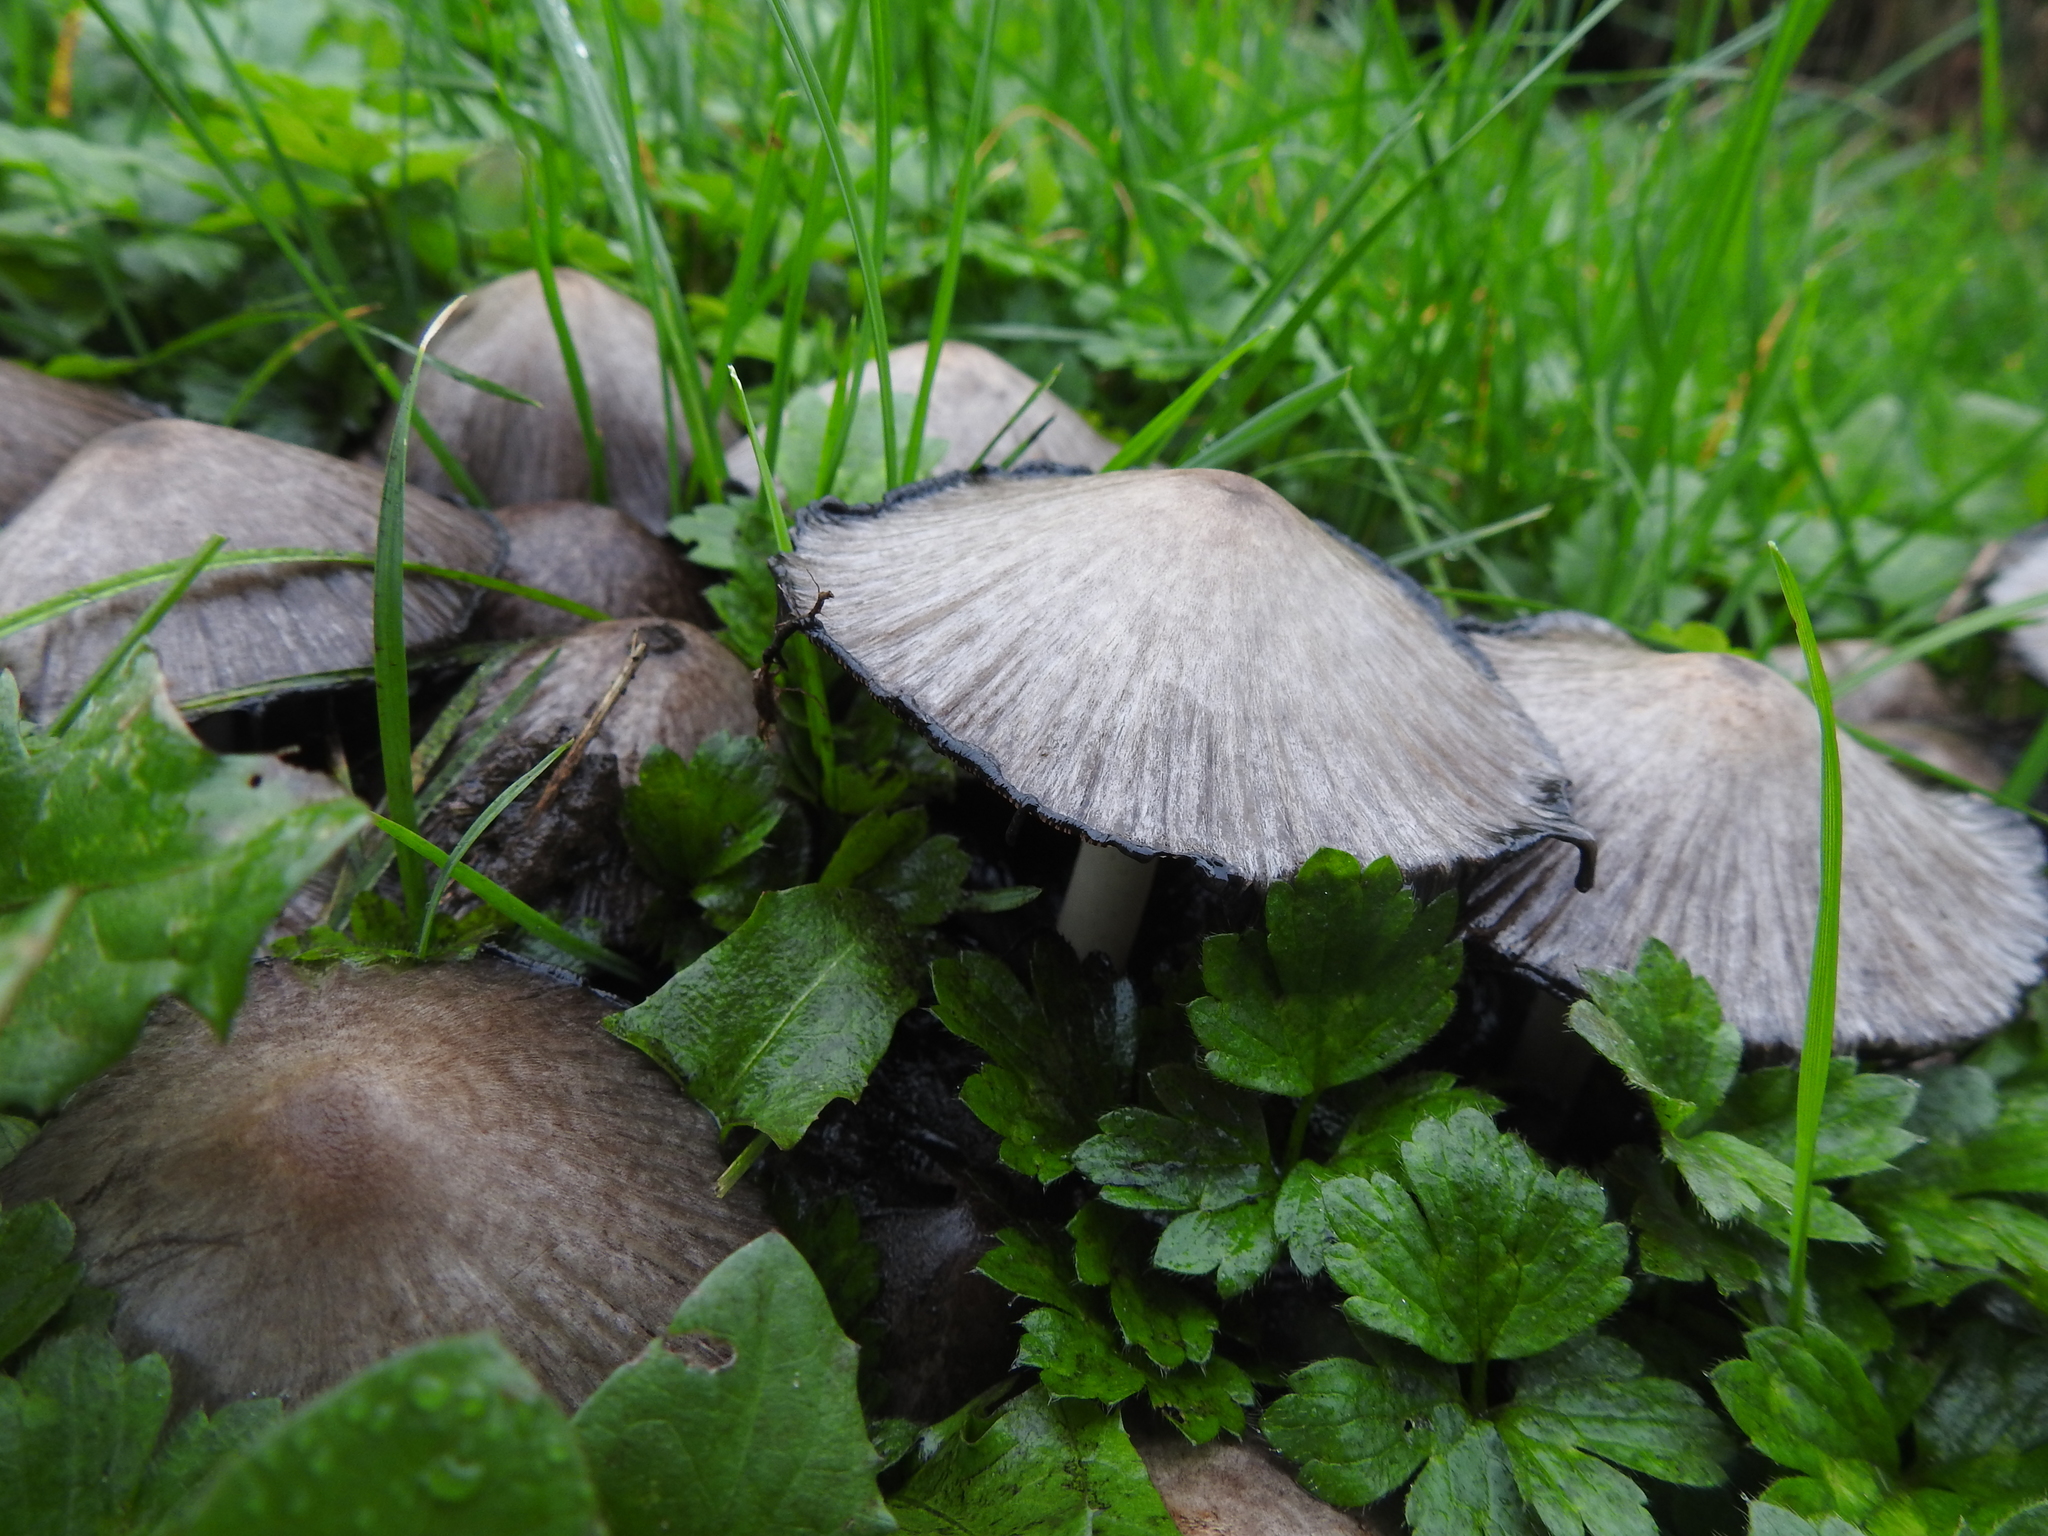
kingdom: Fungi
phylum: Basidiomycota
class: Agaricomycetes
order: Agaricales
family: Psathyrellaceae
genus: Coprinopsis
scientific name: Coprinopsis atramentaria
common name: Common ink-cap
